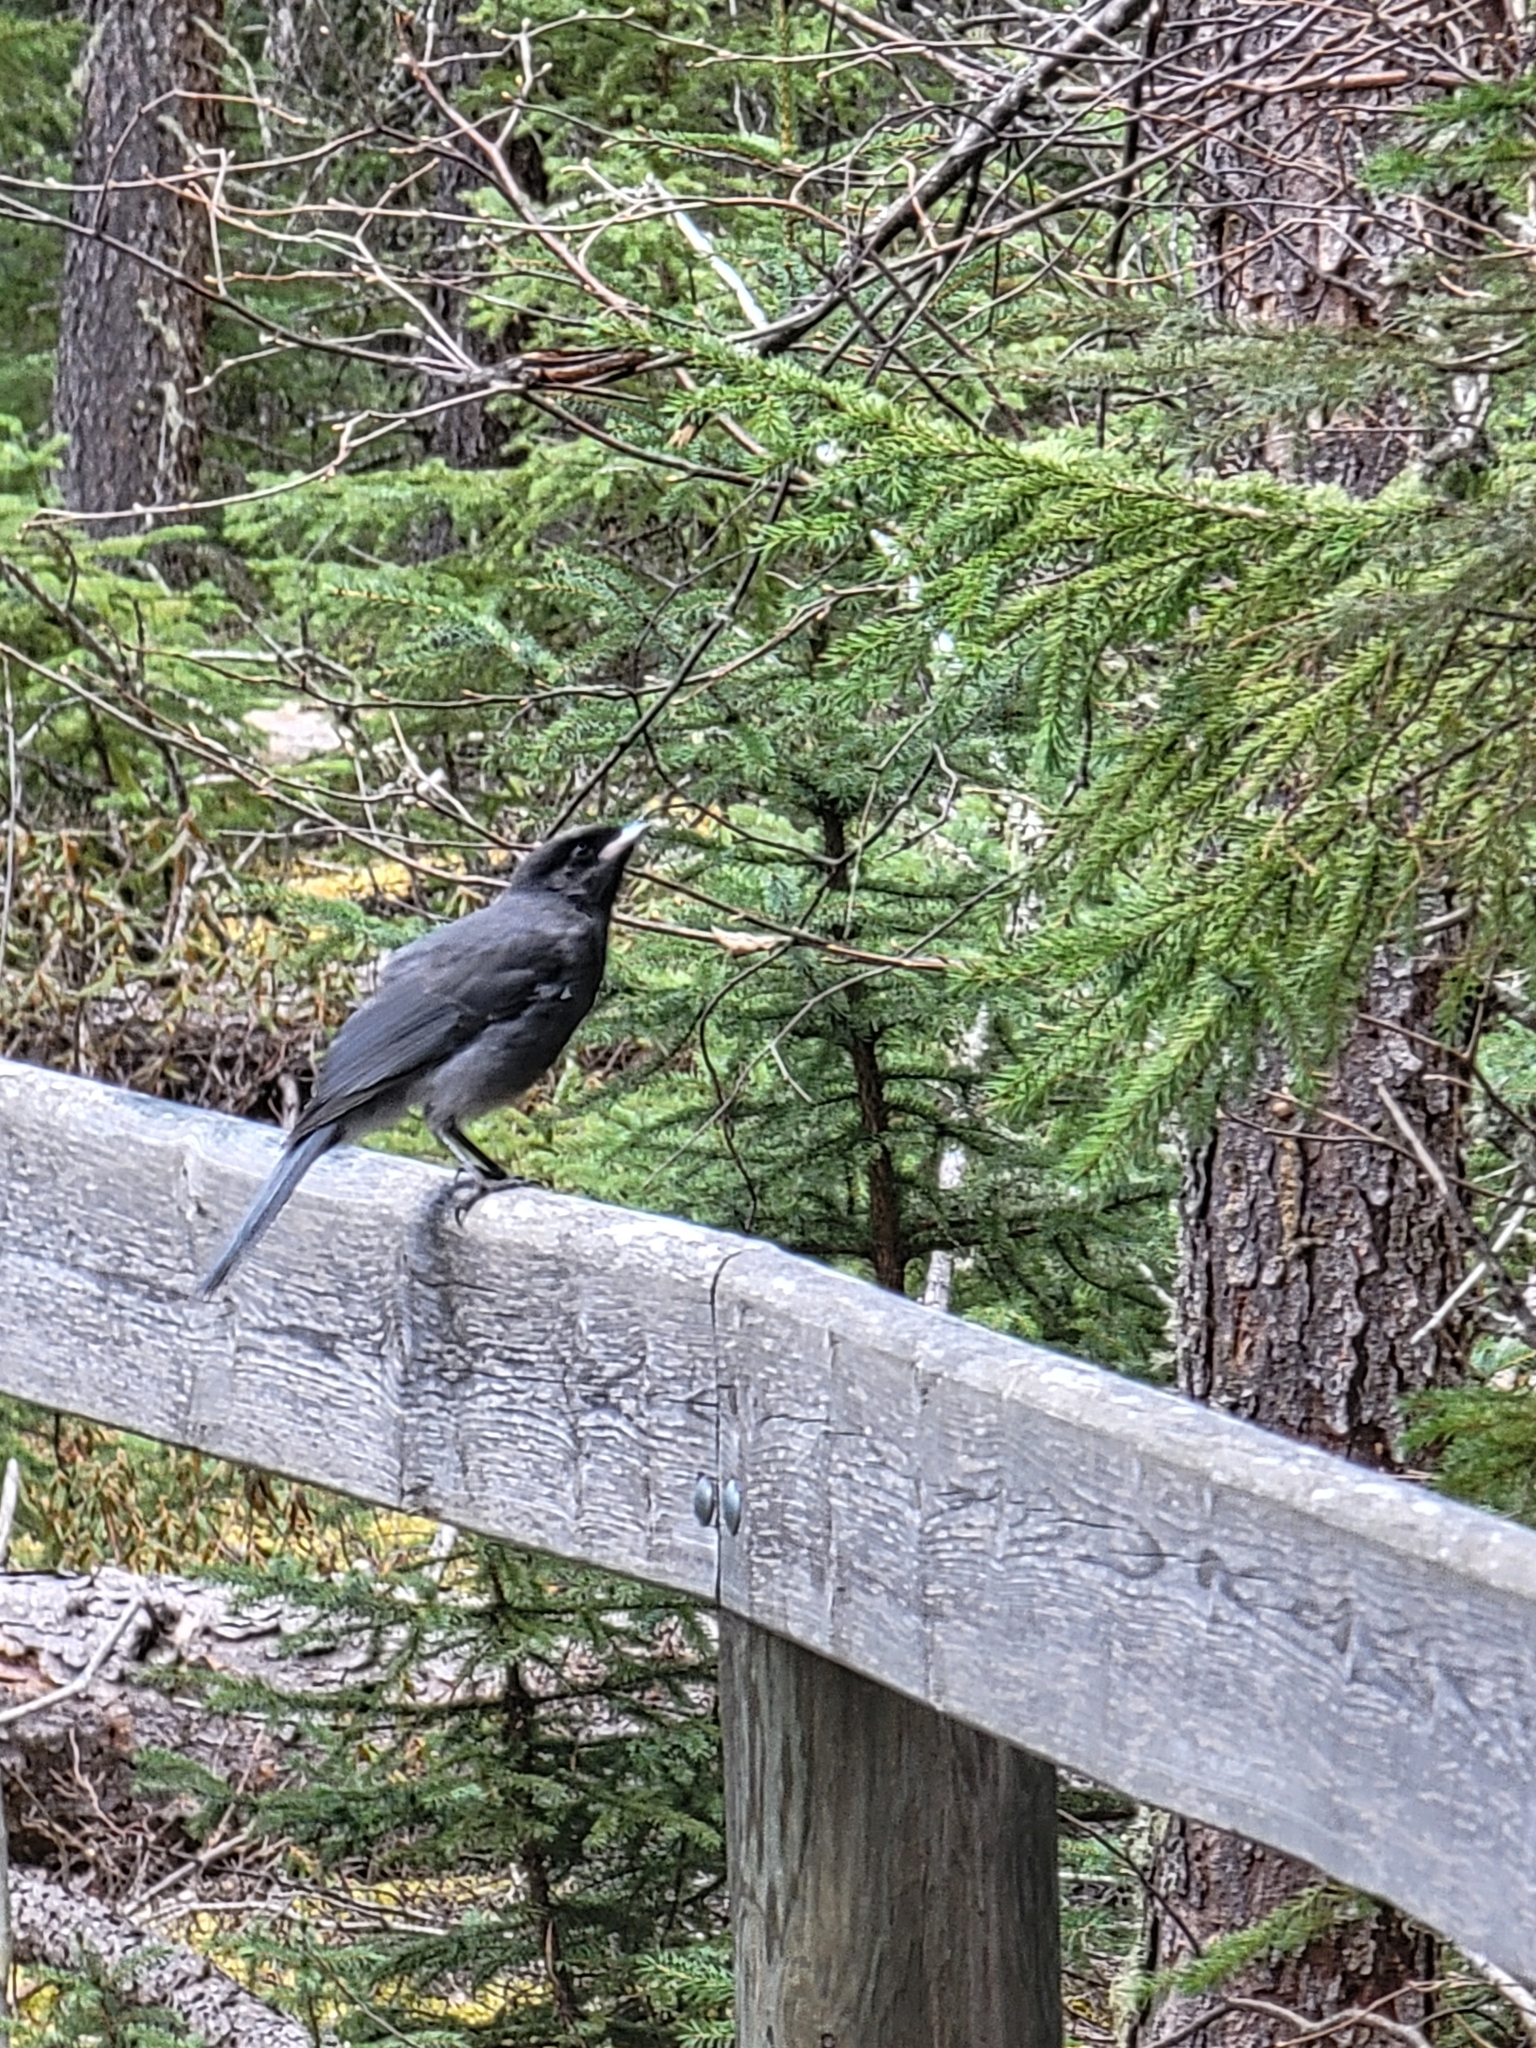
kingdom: Animalia
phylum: Chordata
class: Aves
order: Passeriformes
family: Corvidae
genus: Perisoreus
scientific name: Perisoreus canadensis
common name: Gray jay
